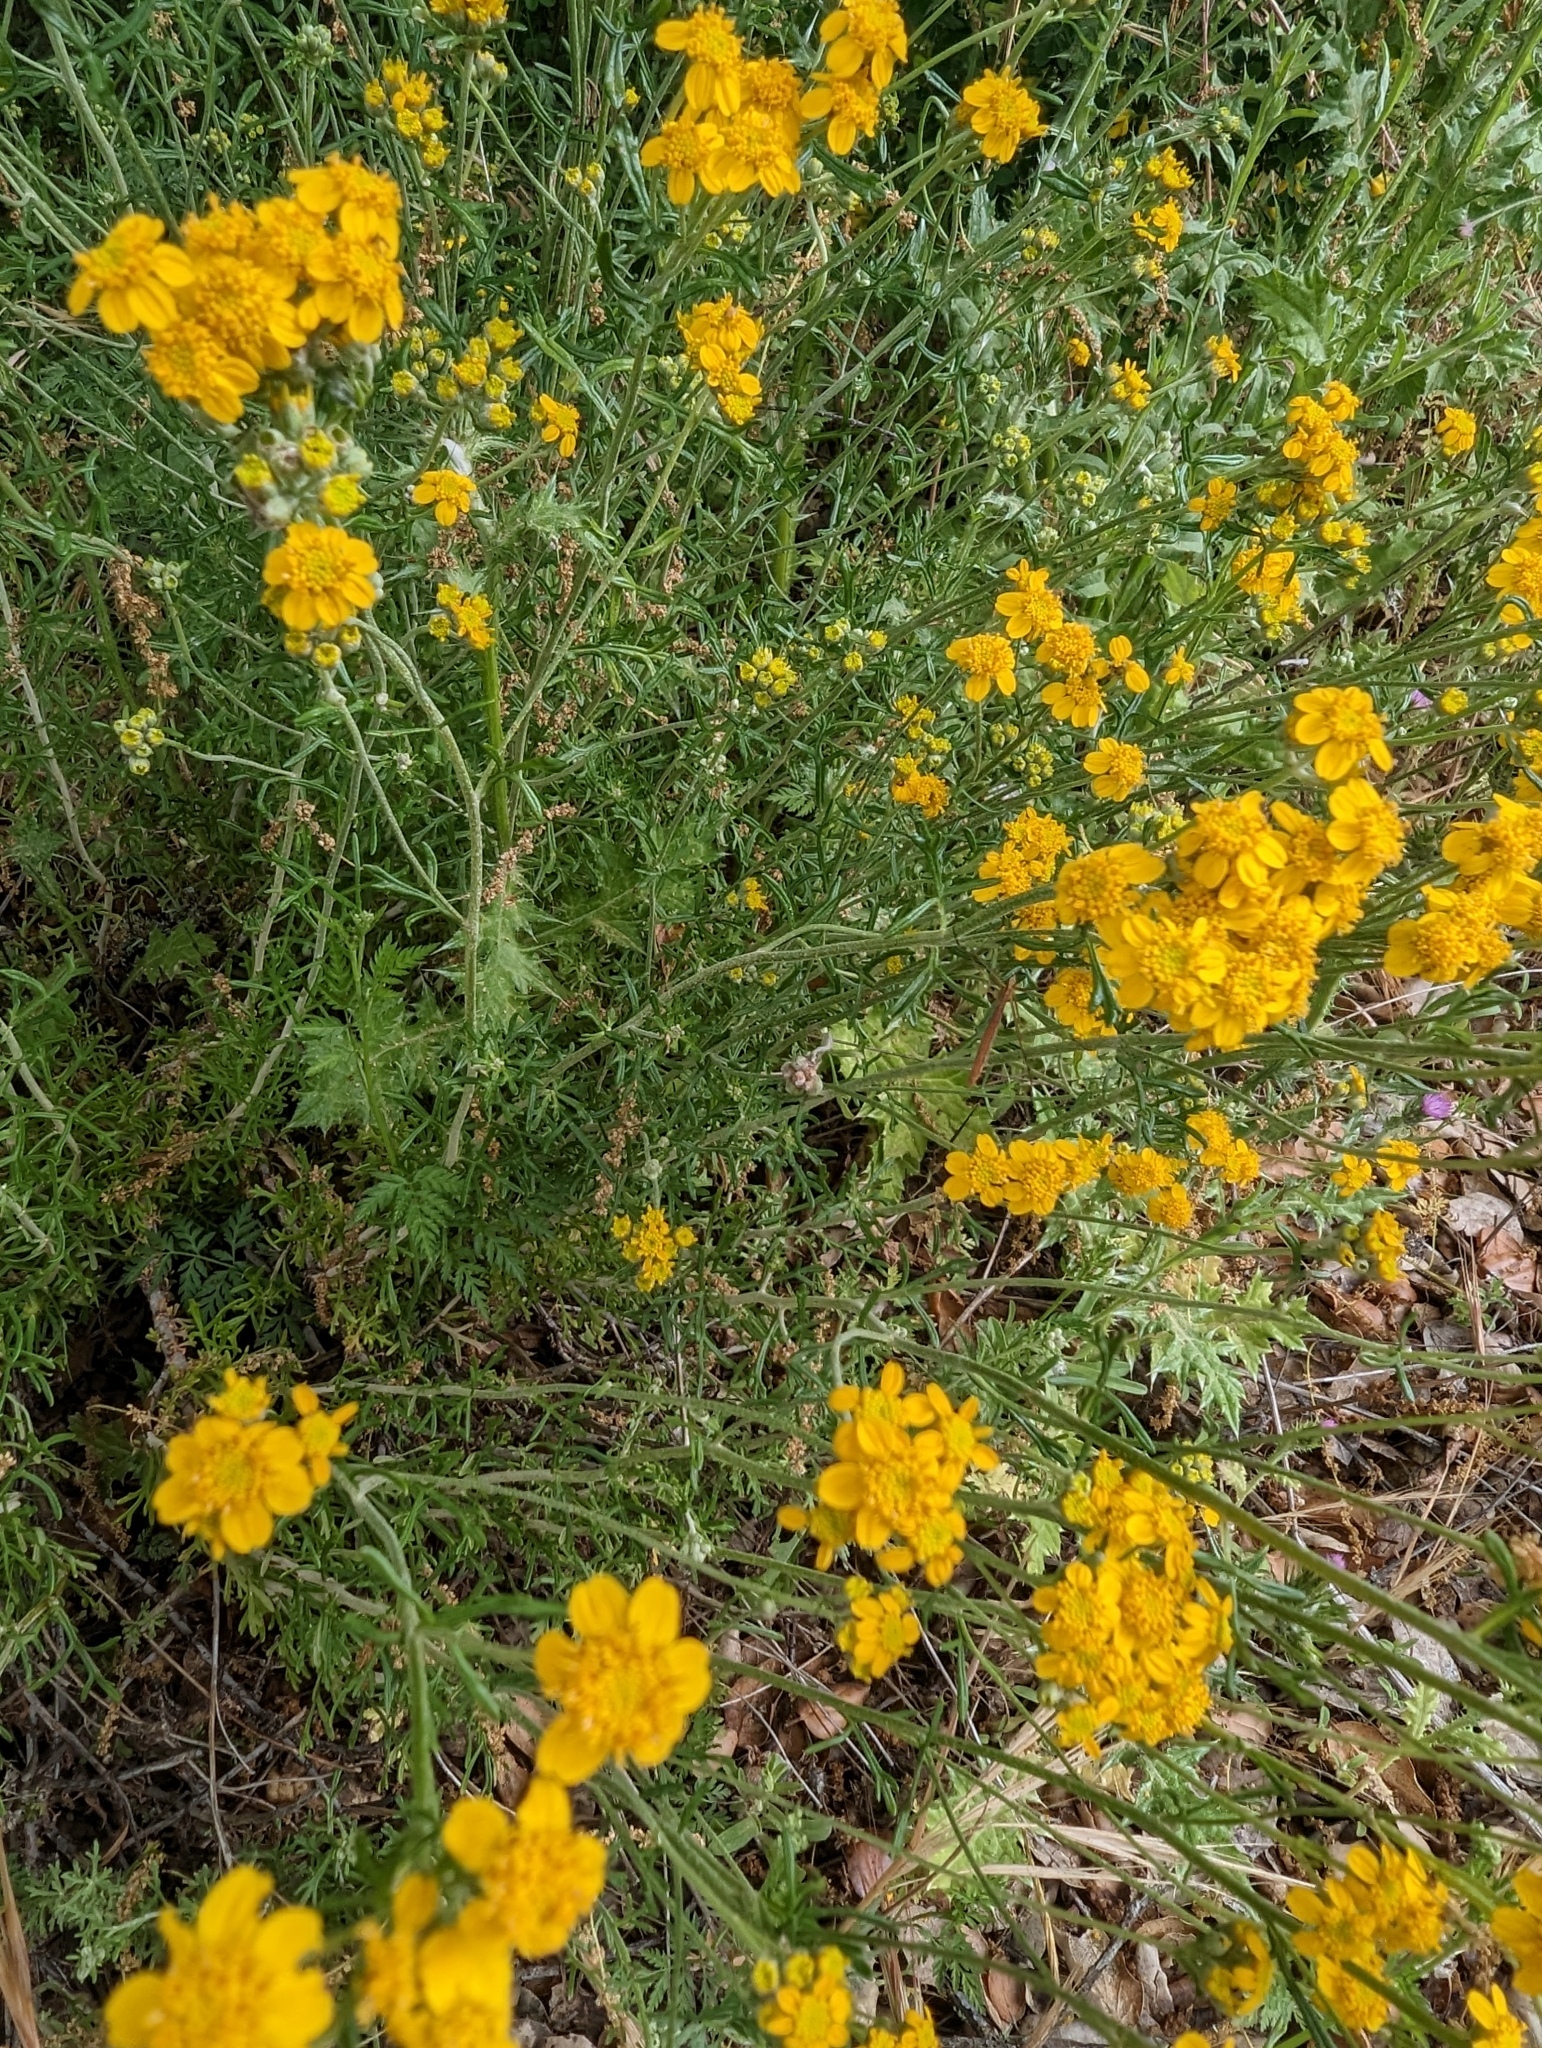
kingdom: Plantae
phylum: Tracheophyta
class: Magnoliopsida
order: Asterales
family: Asteraceae
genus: Eriophyllum
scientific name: Eriophyllum confertiflorum
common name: Golden-yarrow
